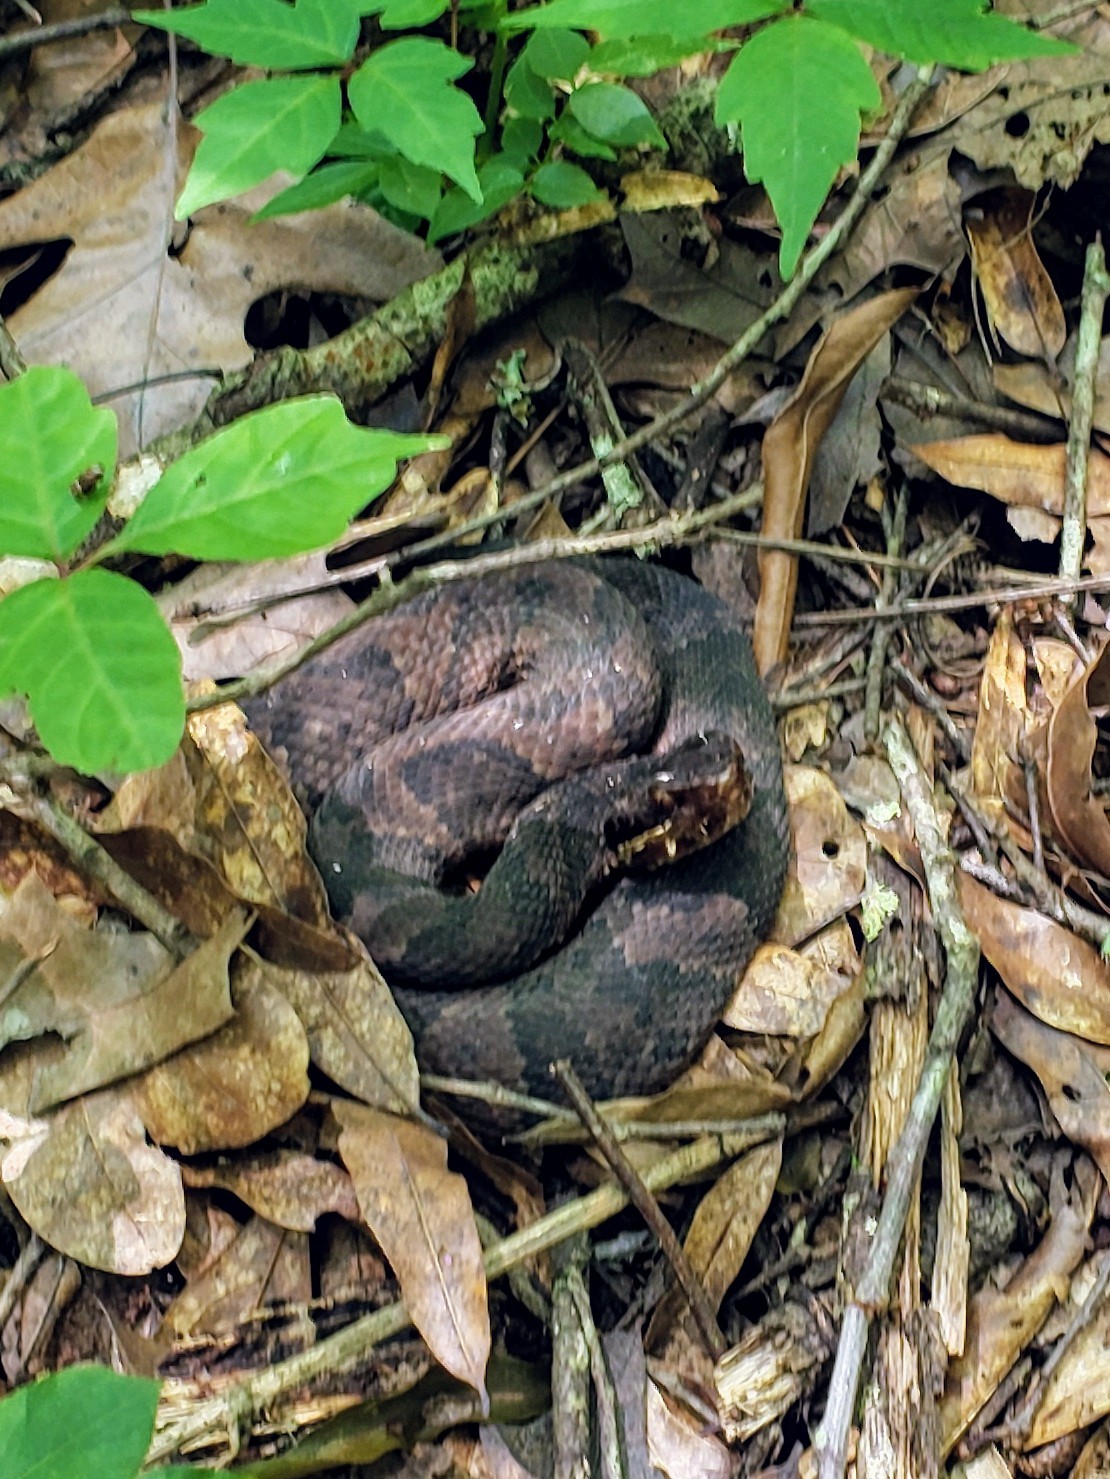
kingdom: Animalia
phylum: Chordata
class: Squamata
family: Viperidae
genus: Agkistrodon
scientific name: Agkistrodon piscivorus
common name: Cottonmouth
